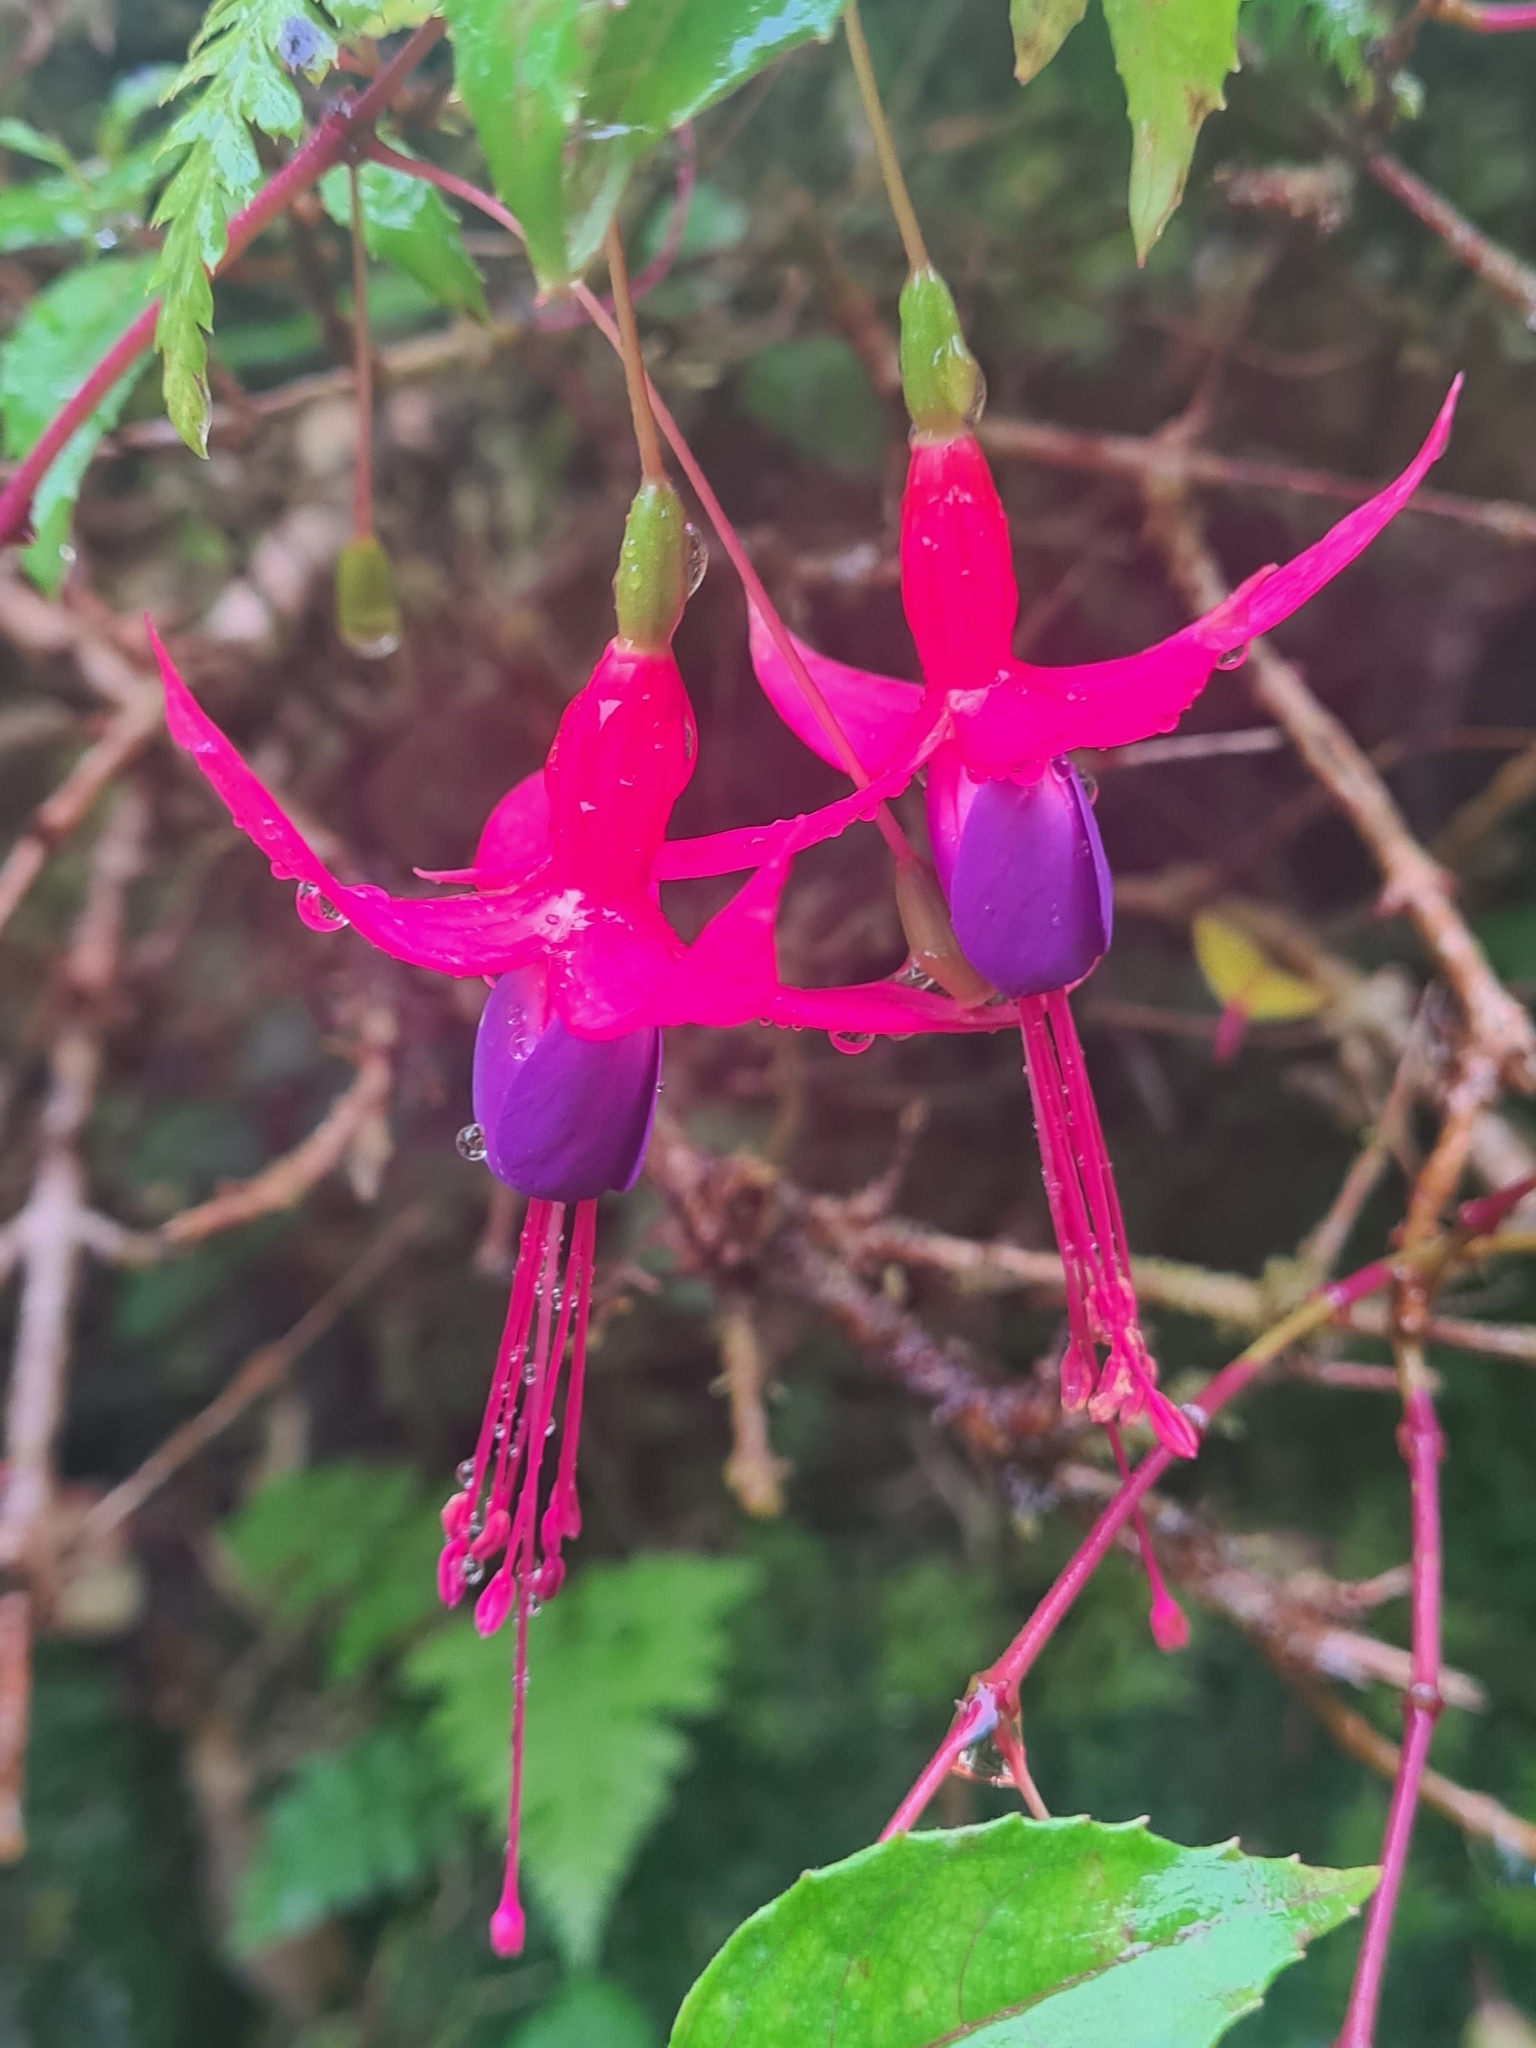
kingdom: Plantae
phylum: Tracheophyta
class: Magnoliopsida
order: Myrtales
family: Onagraceae
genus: Fuchsia
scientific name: Fuchsia magellanica
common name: Hardy fuchsia
